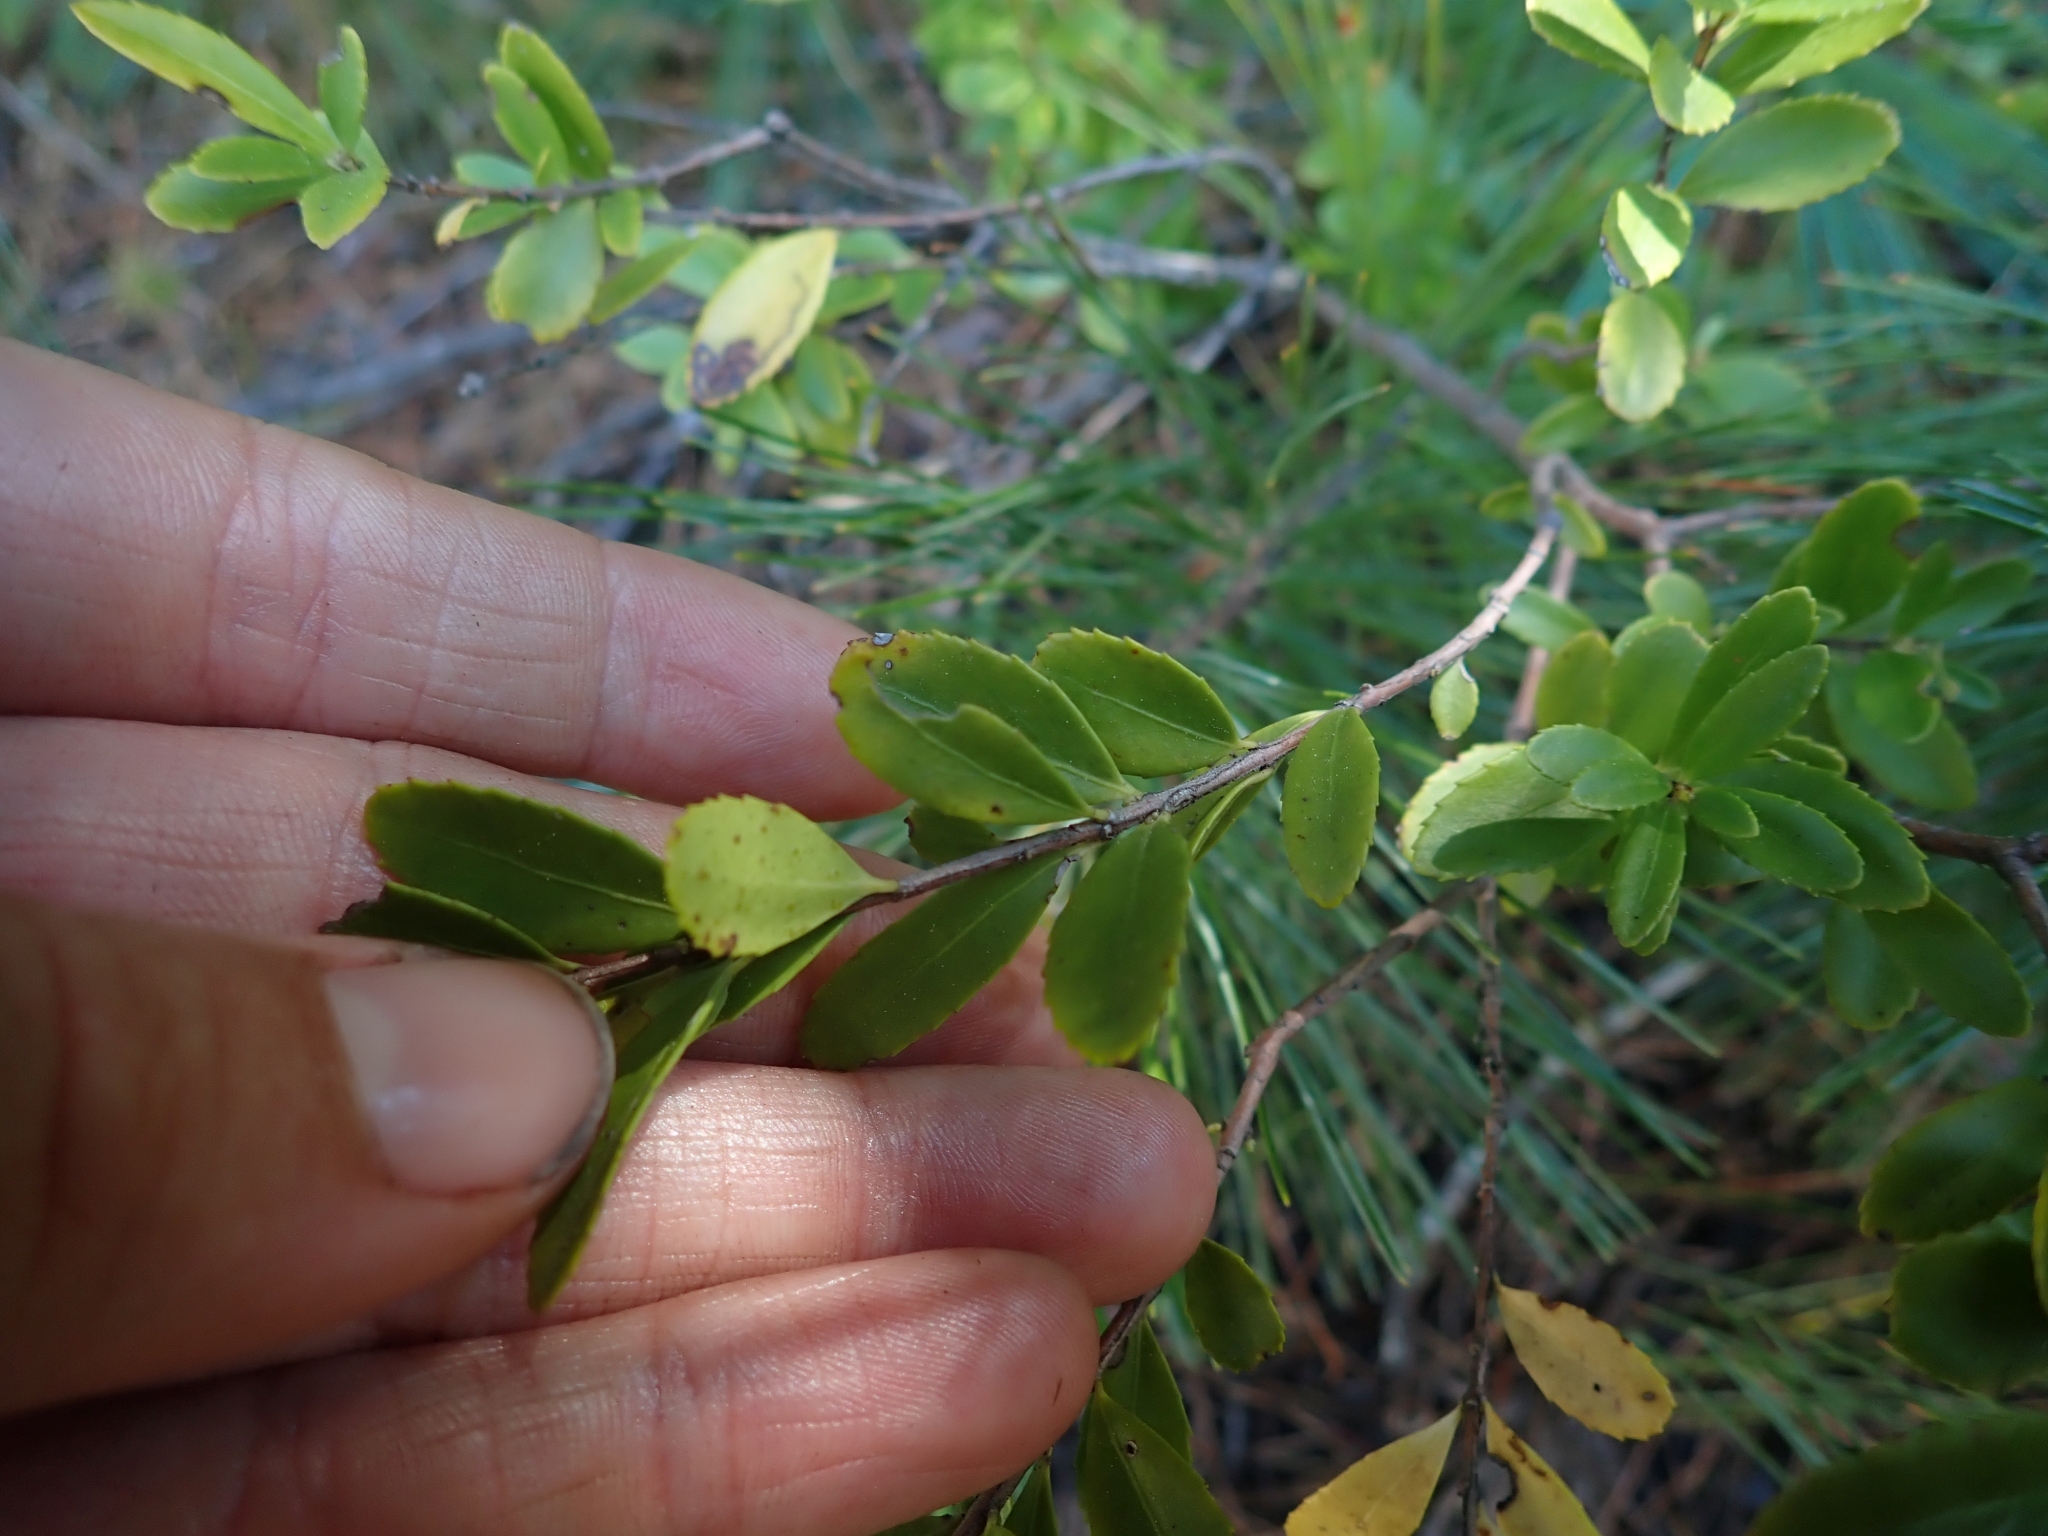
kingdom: Plantae
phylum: Tracheophyta
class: Magnoliopsida
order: Celastrales
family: Celastraceae
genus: Paxistima
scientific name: Paxistima myrsinites
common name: Mountain-lover
